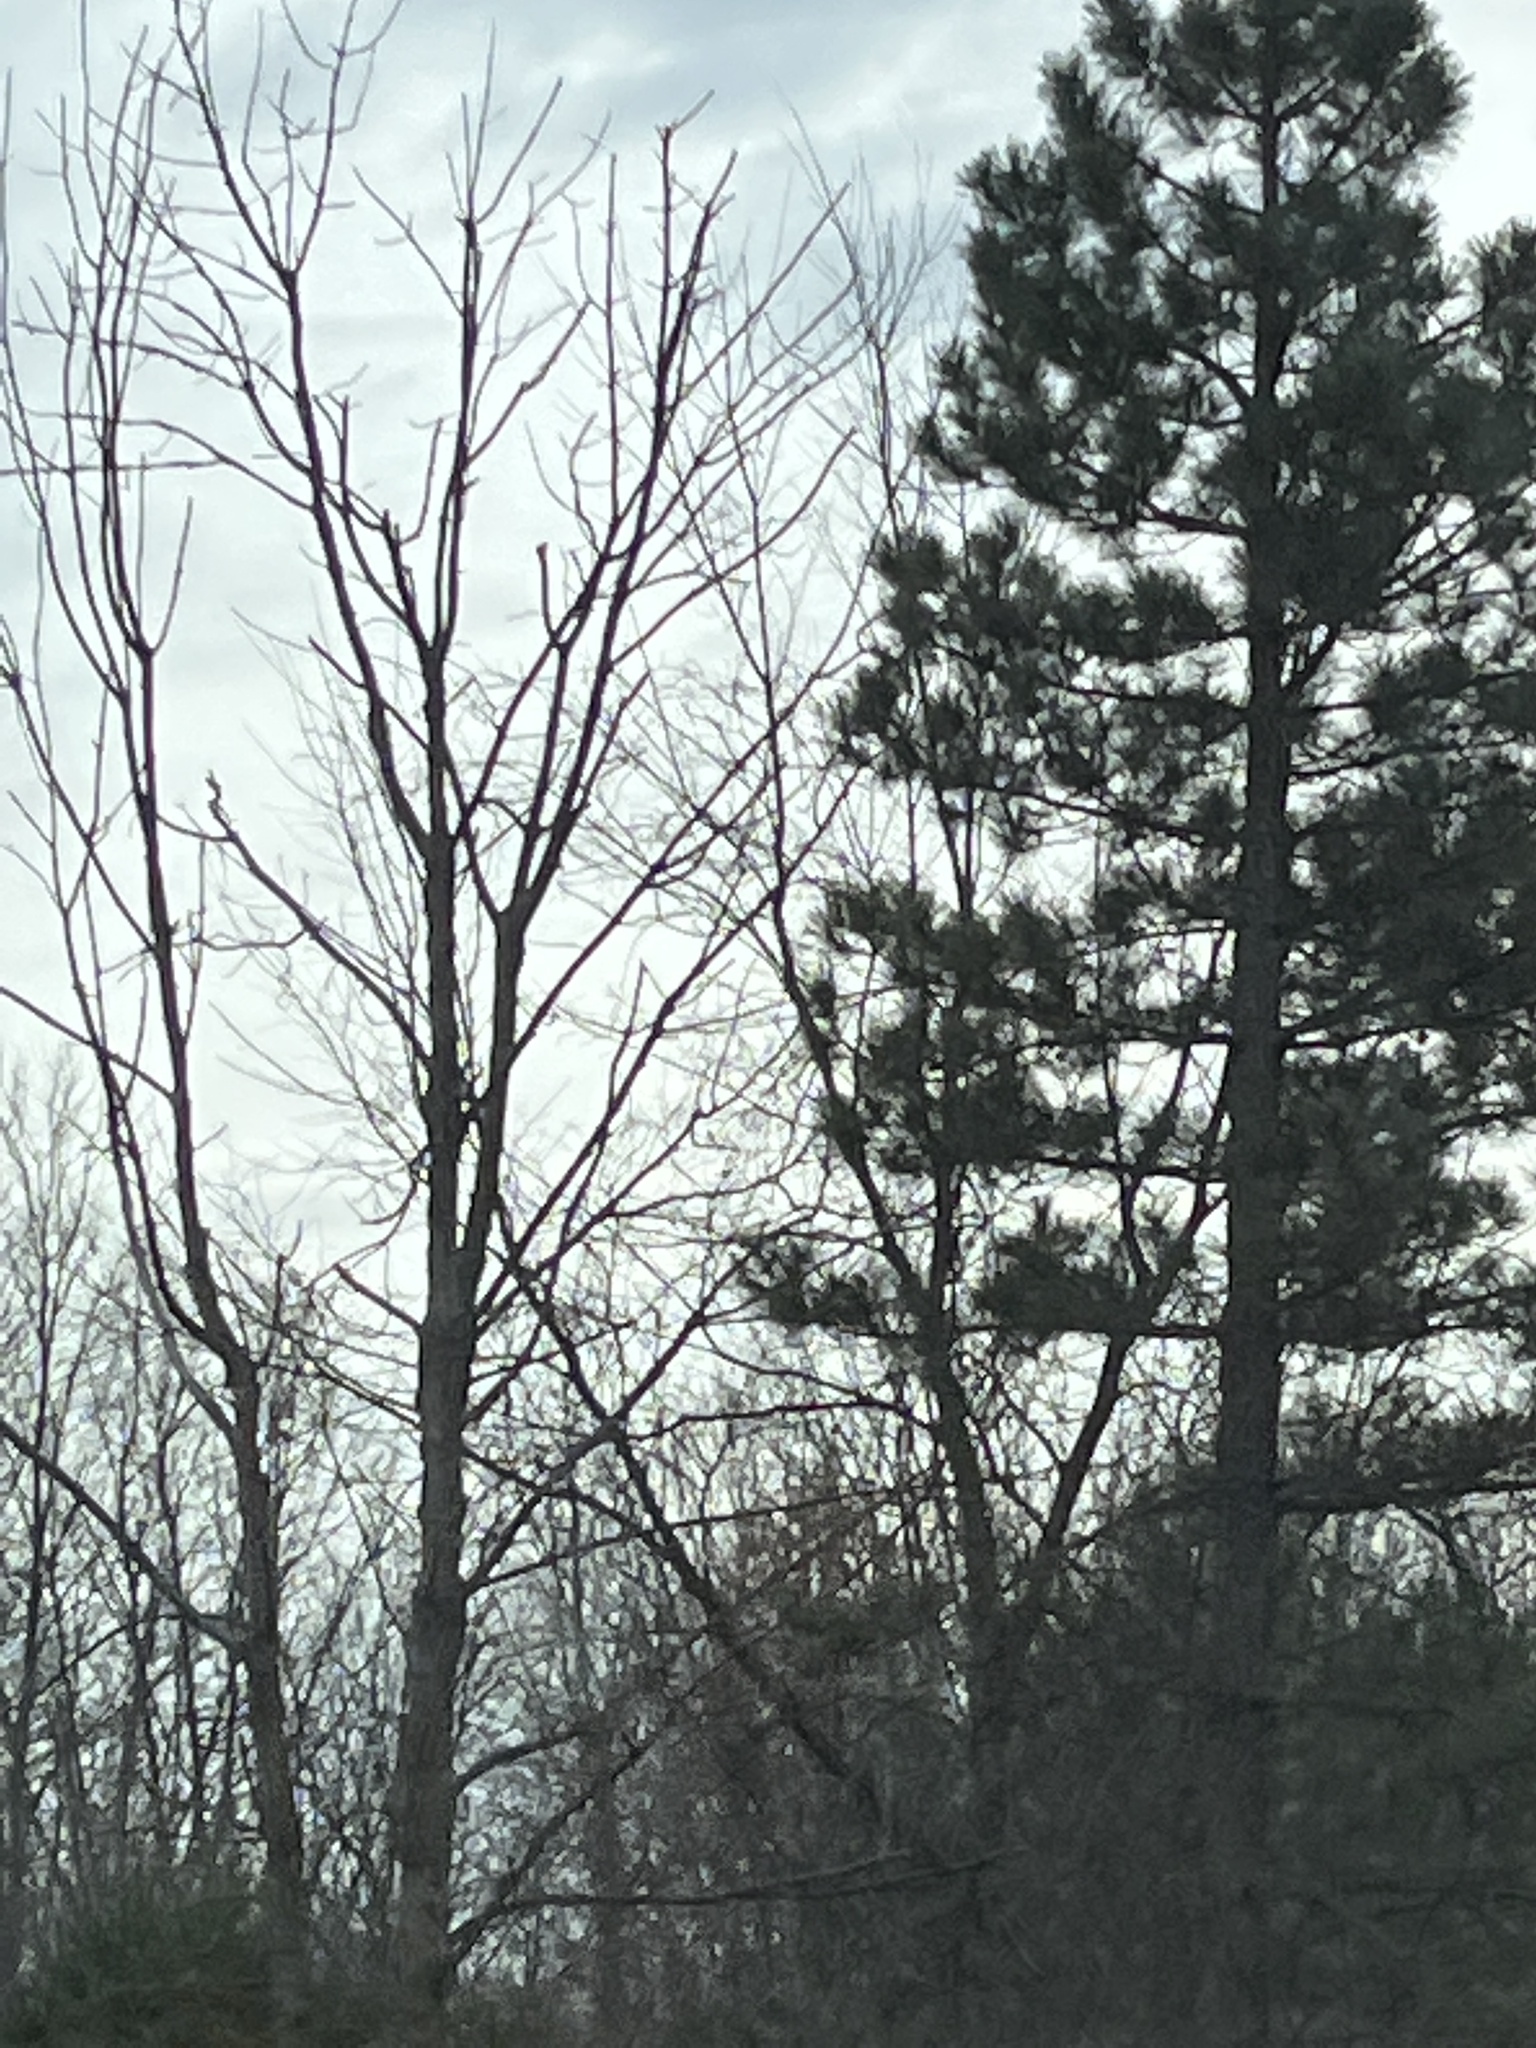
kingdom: Plantae
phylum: Tracheophyta
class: Pinopsida
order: Pinales
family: Pinaceae
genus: Pinus
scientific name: Pinus strobus
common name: Weymouth pine
